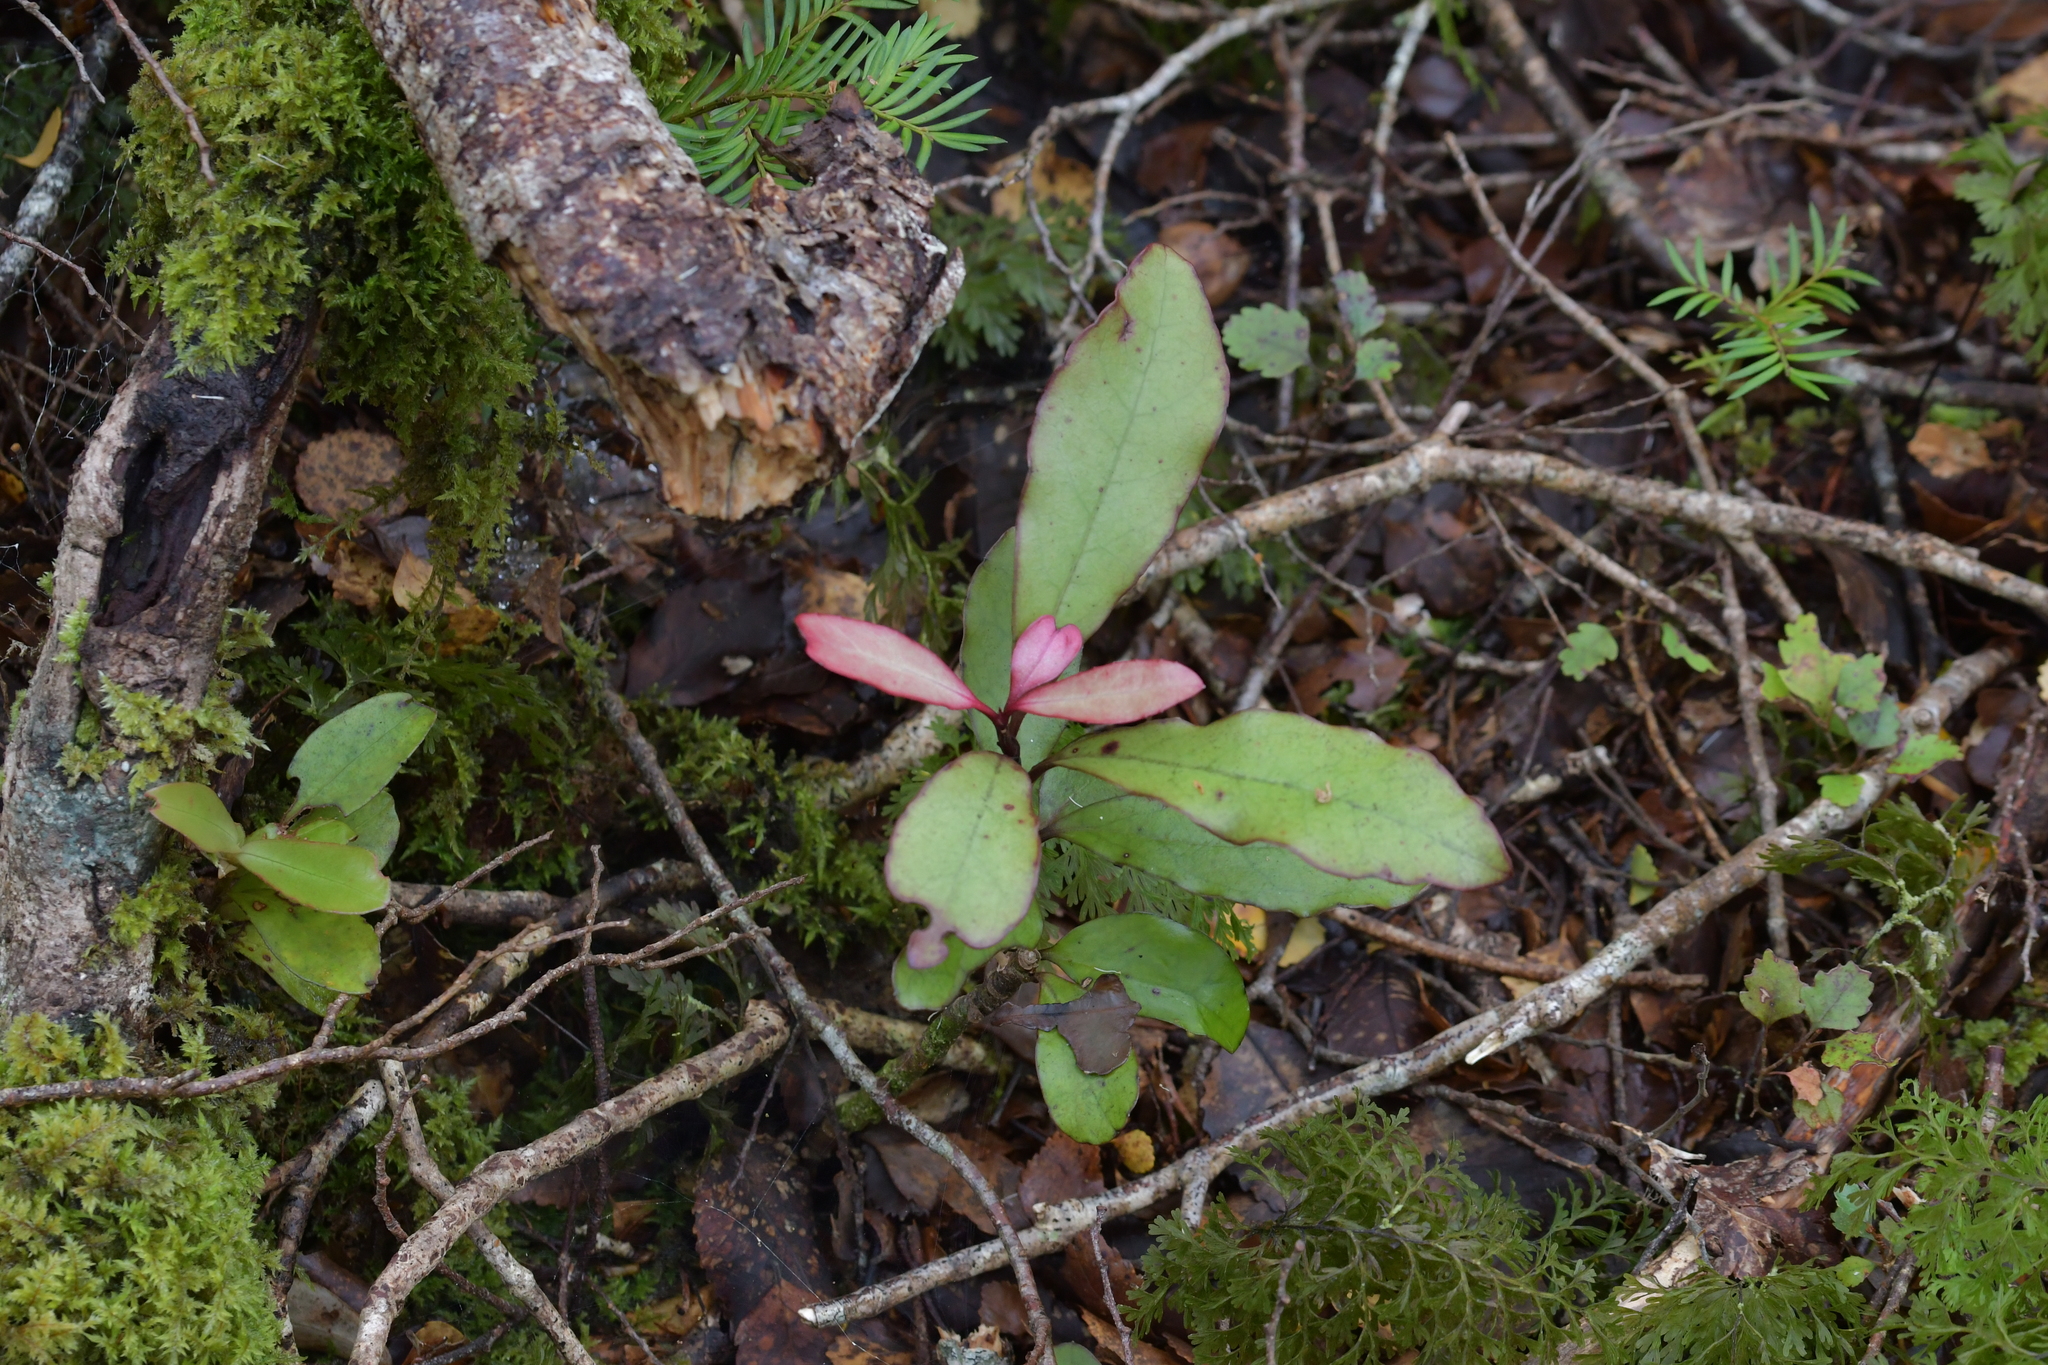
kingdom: Plantae
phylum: Tracheophyta
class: Magnoliopsida
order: Canellales
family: Winteraceae
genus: Pseudowintera
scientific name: Pseudowintera colorata
